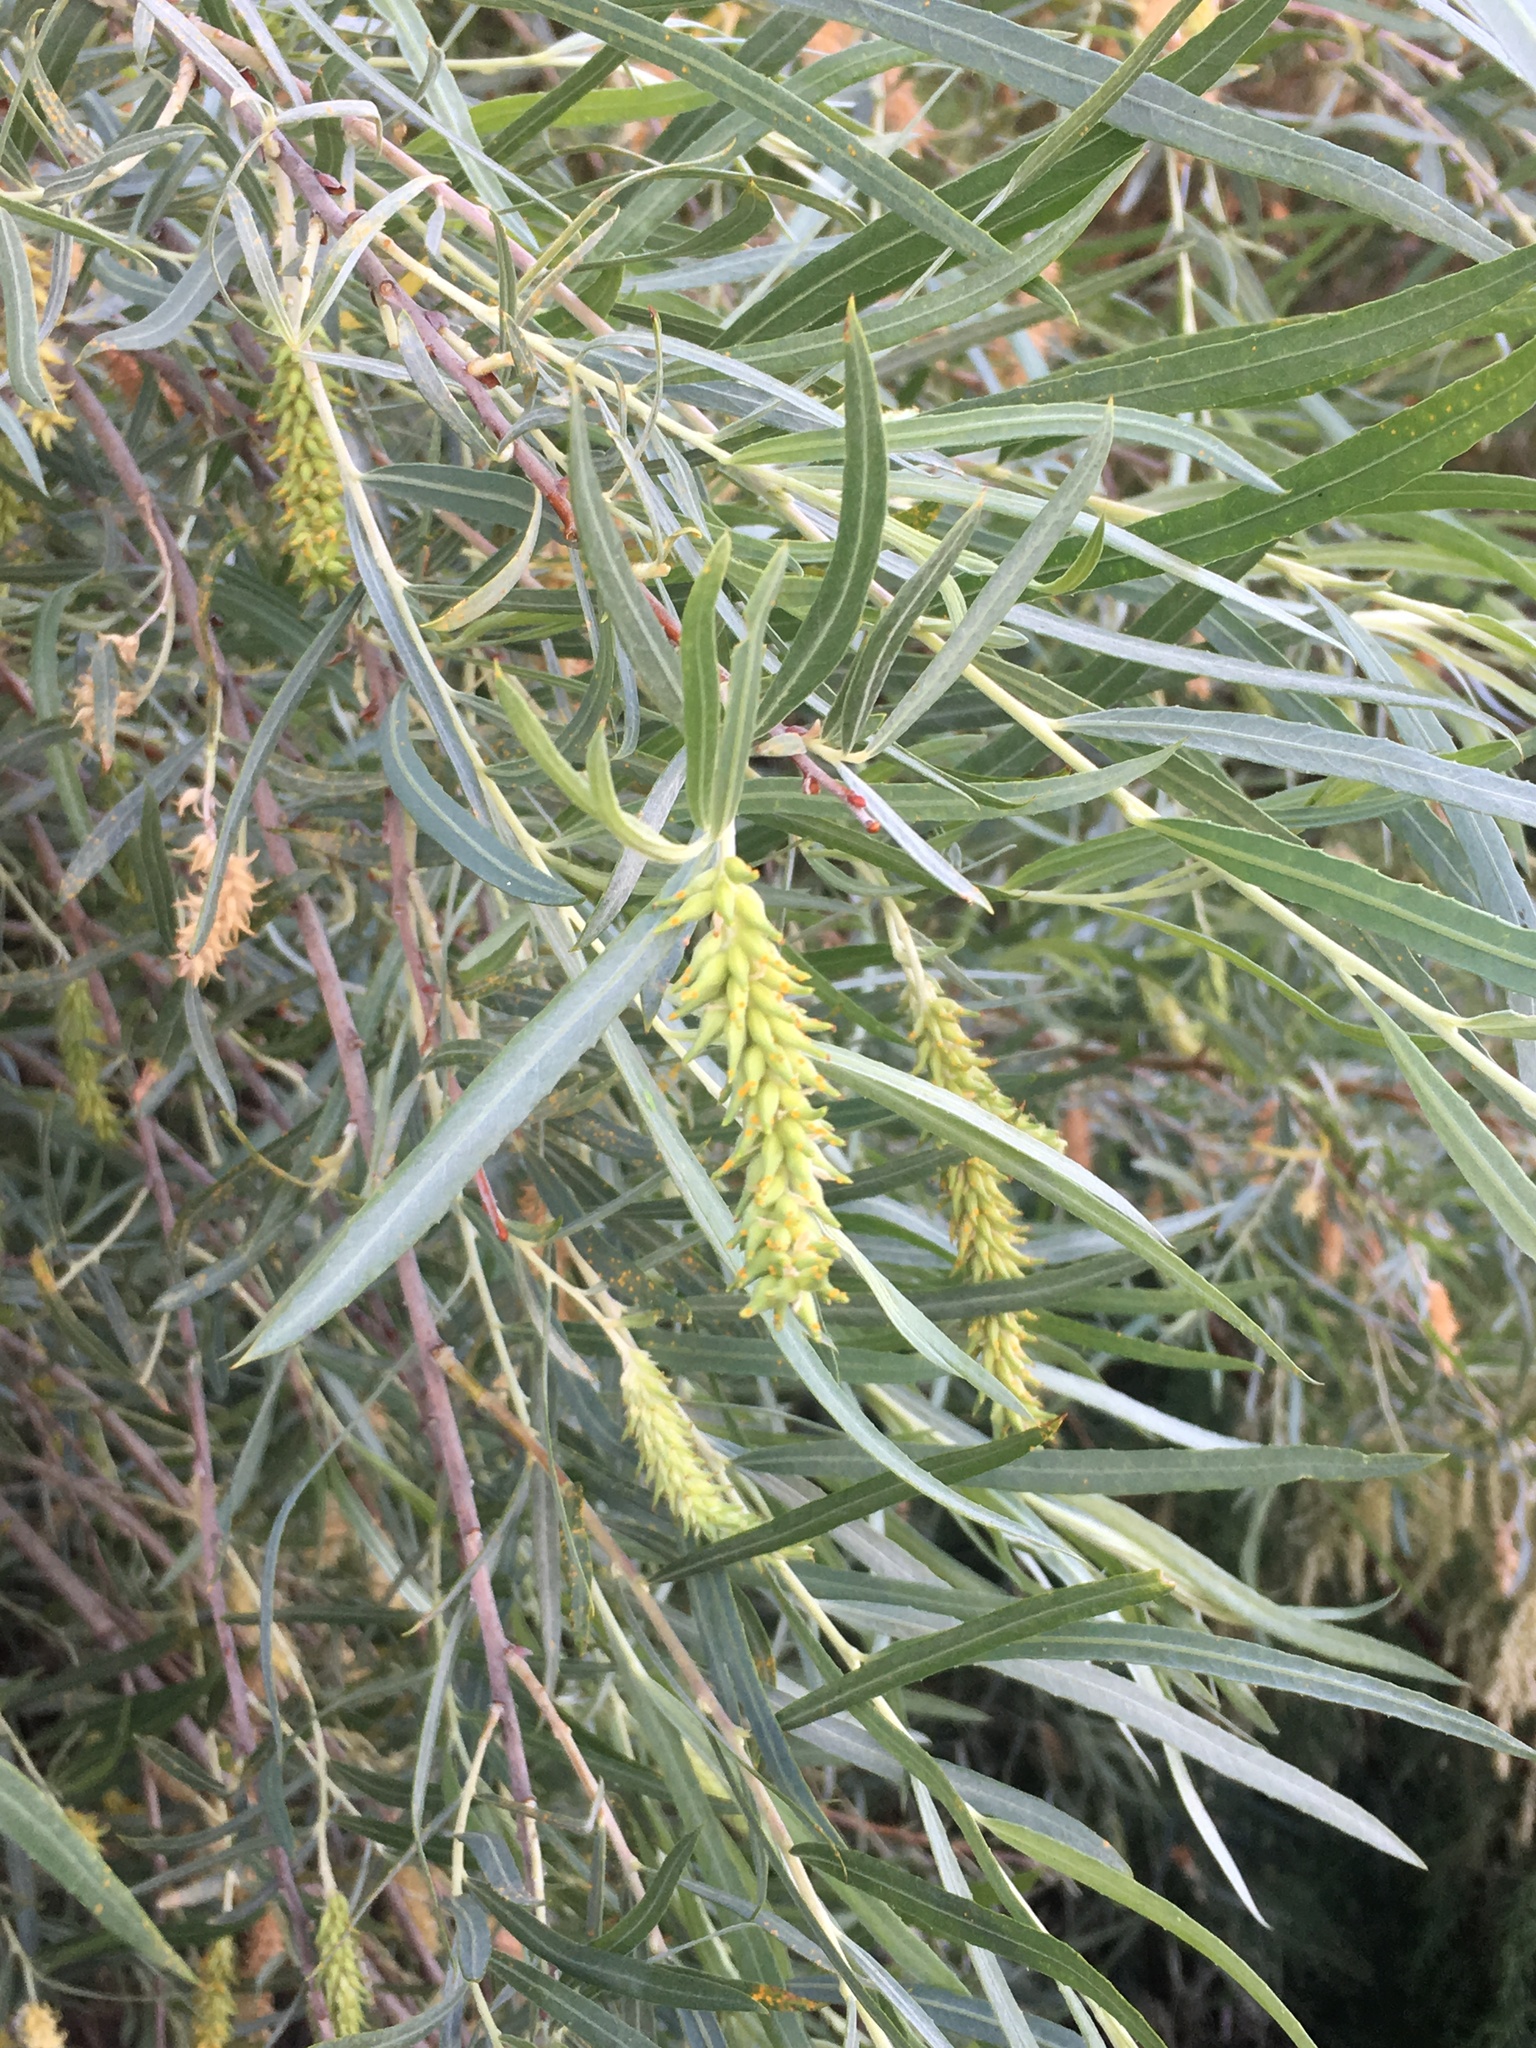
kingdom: Plantae
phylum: Tracheophyta
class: Magnoliopsida
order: Malpighiales
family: Salicaceae
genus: Salix
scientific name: Salix exigua
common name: Coyote willow
